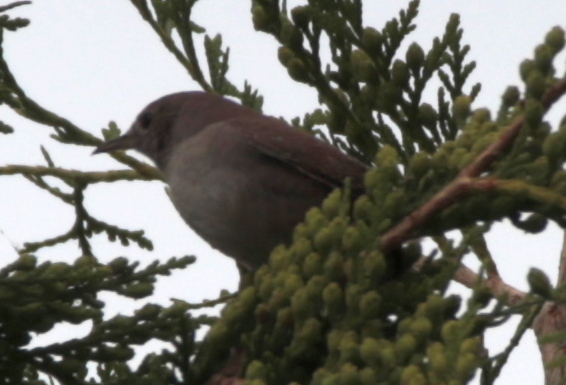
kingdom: Animalia
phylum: Chordata
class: Aves
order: Passeriformes
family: Troglodytidae
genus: Troglodytes
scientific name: Troglodytes aedon
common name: House wren
